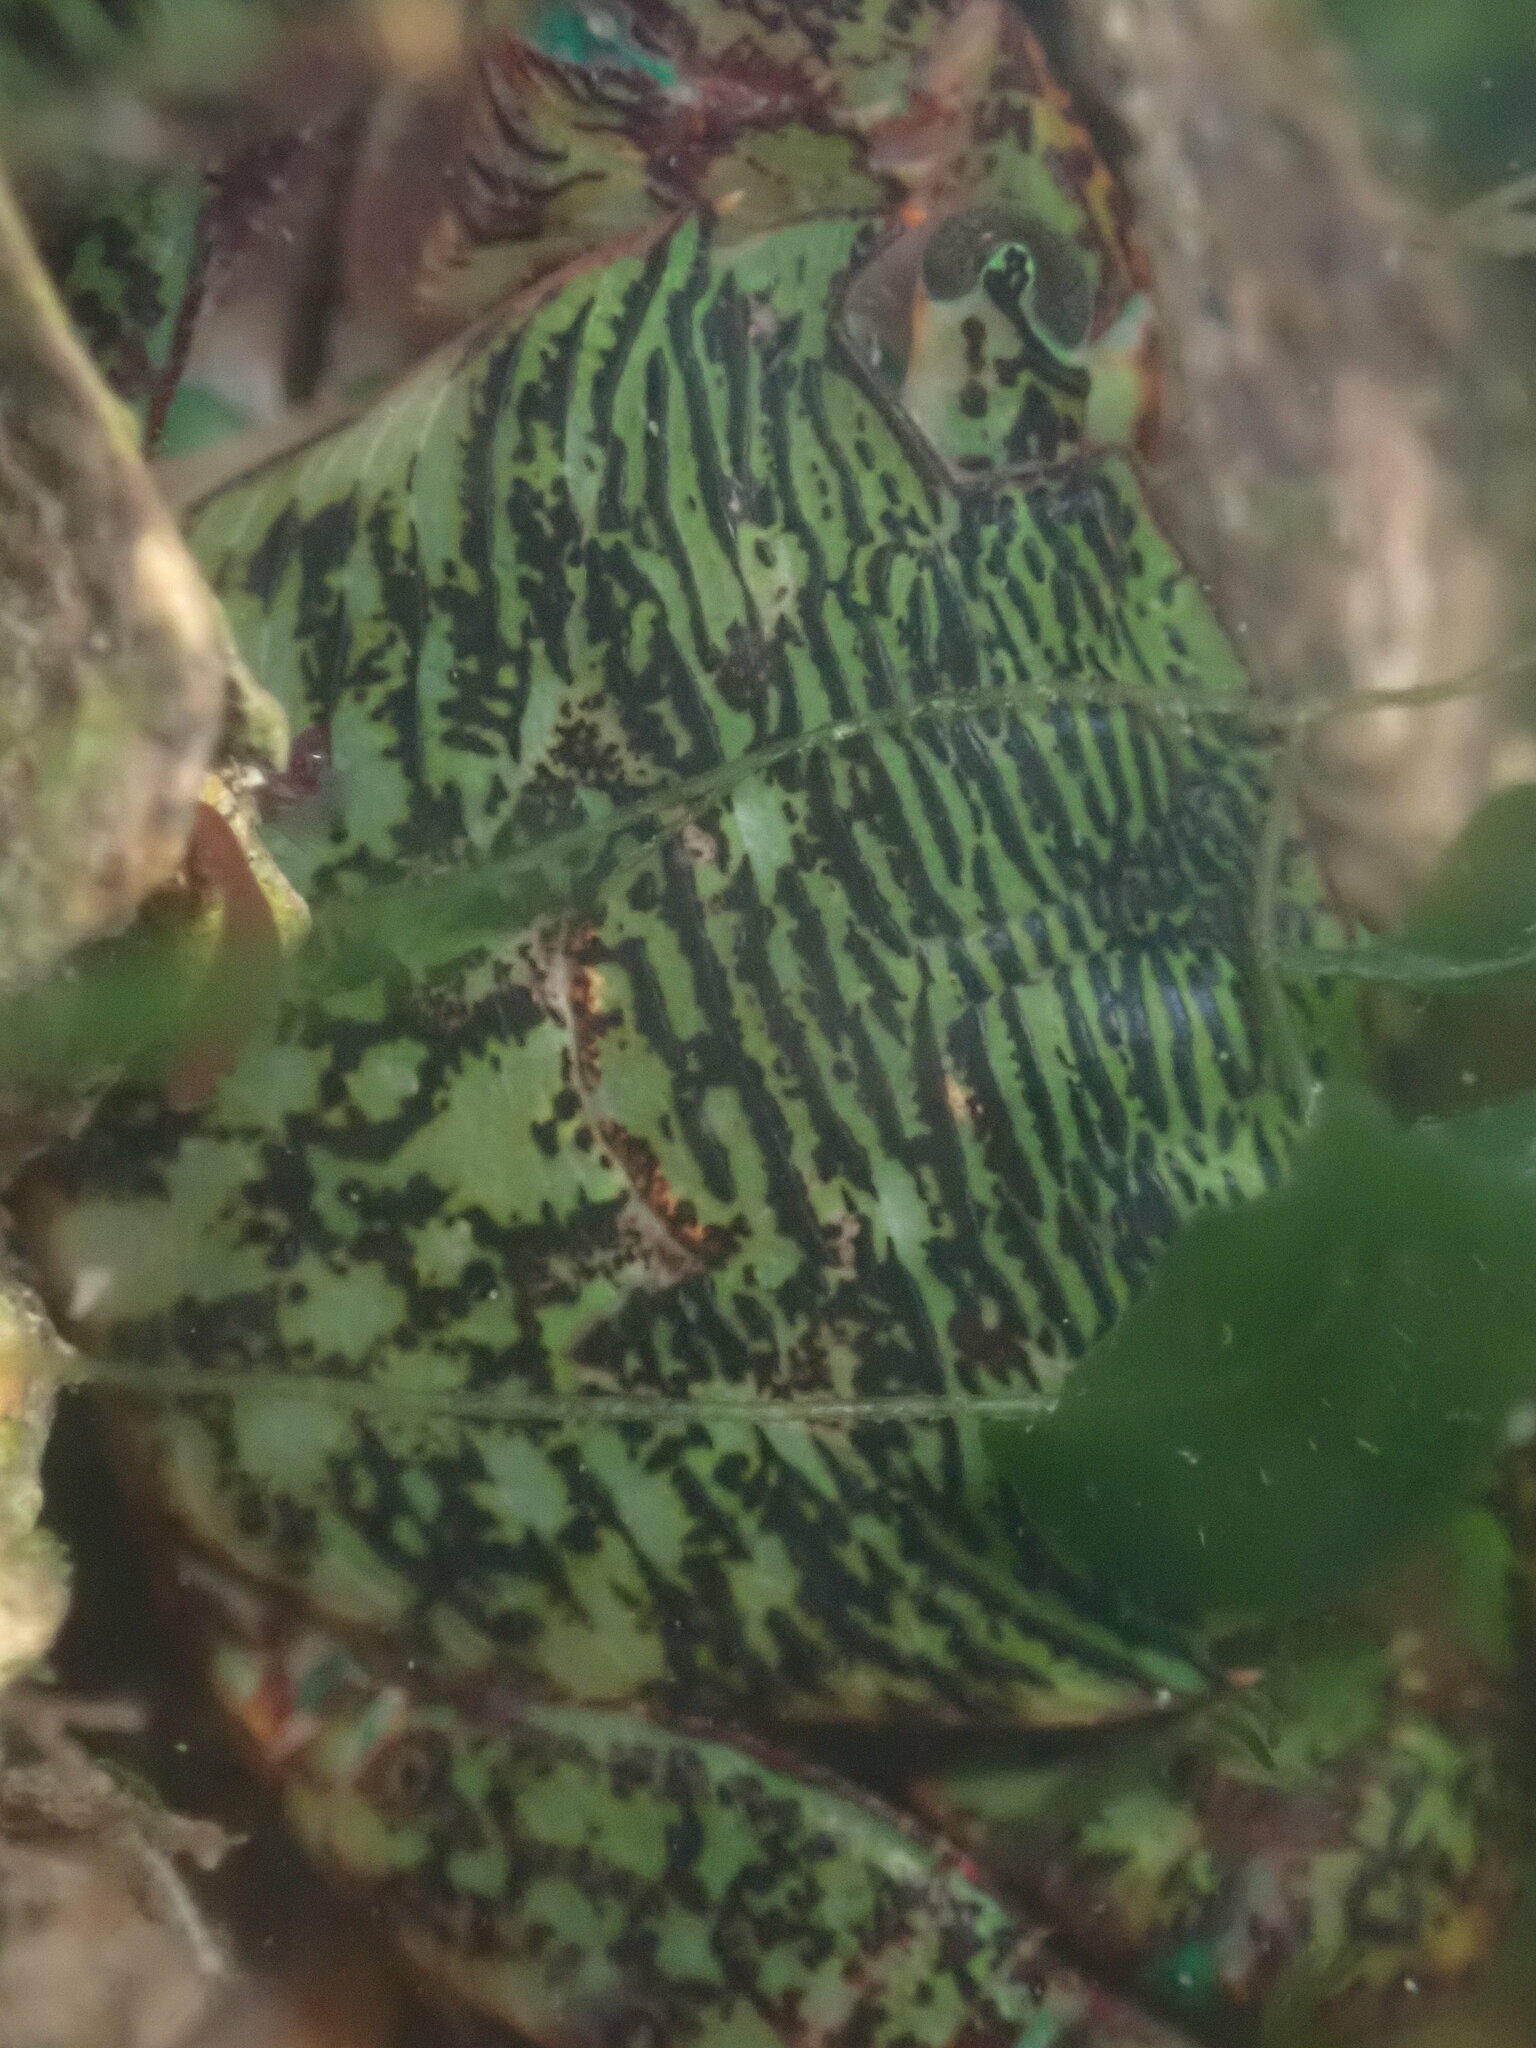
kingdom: Animalia
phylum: Arthropoda
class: Malacostraca
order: Decapoda
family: Grapsidae
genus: Pachygrapsus
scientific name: Pachygrapsus crassipes
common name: Striped shore crab
